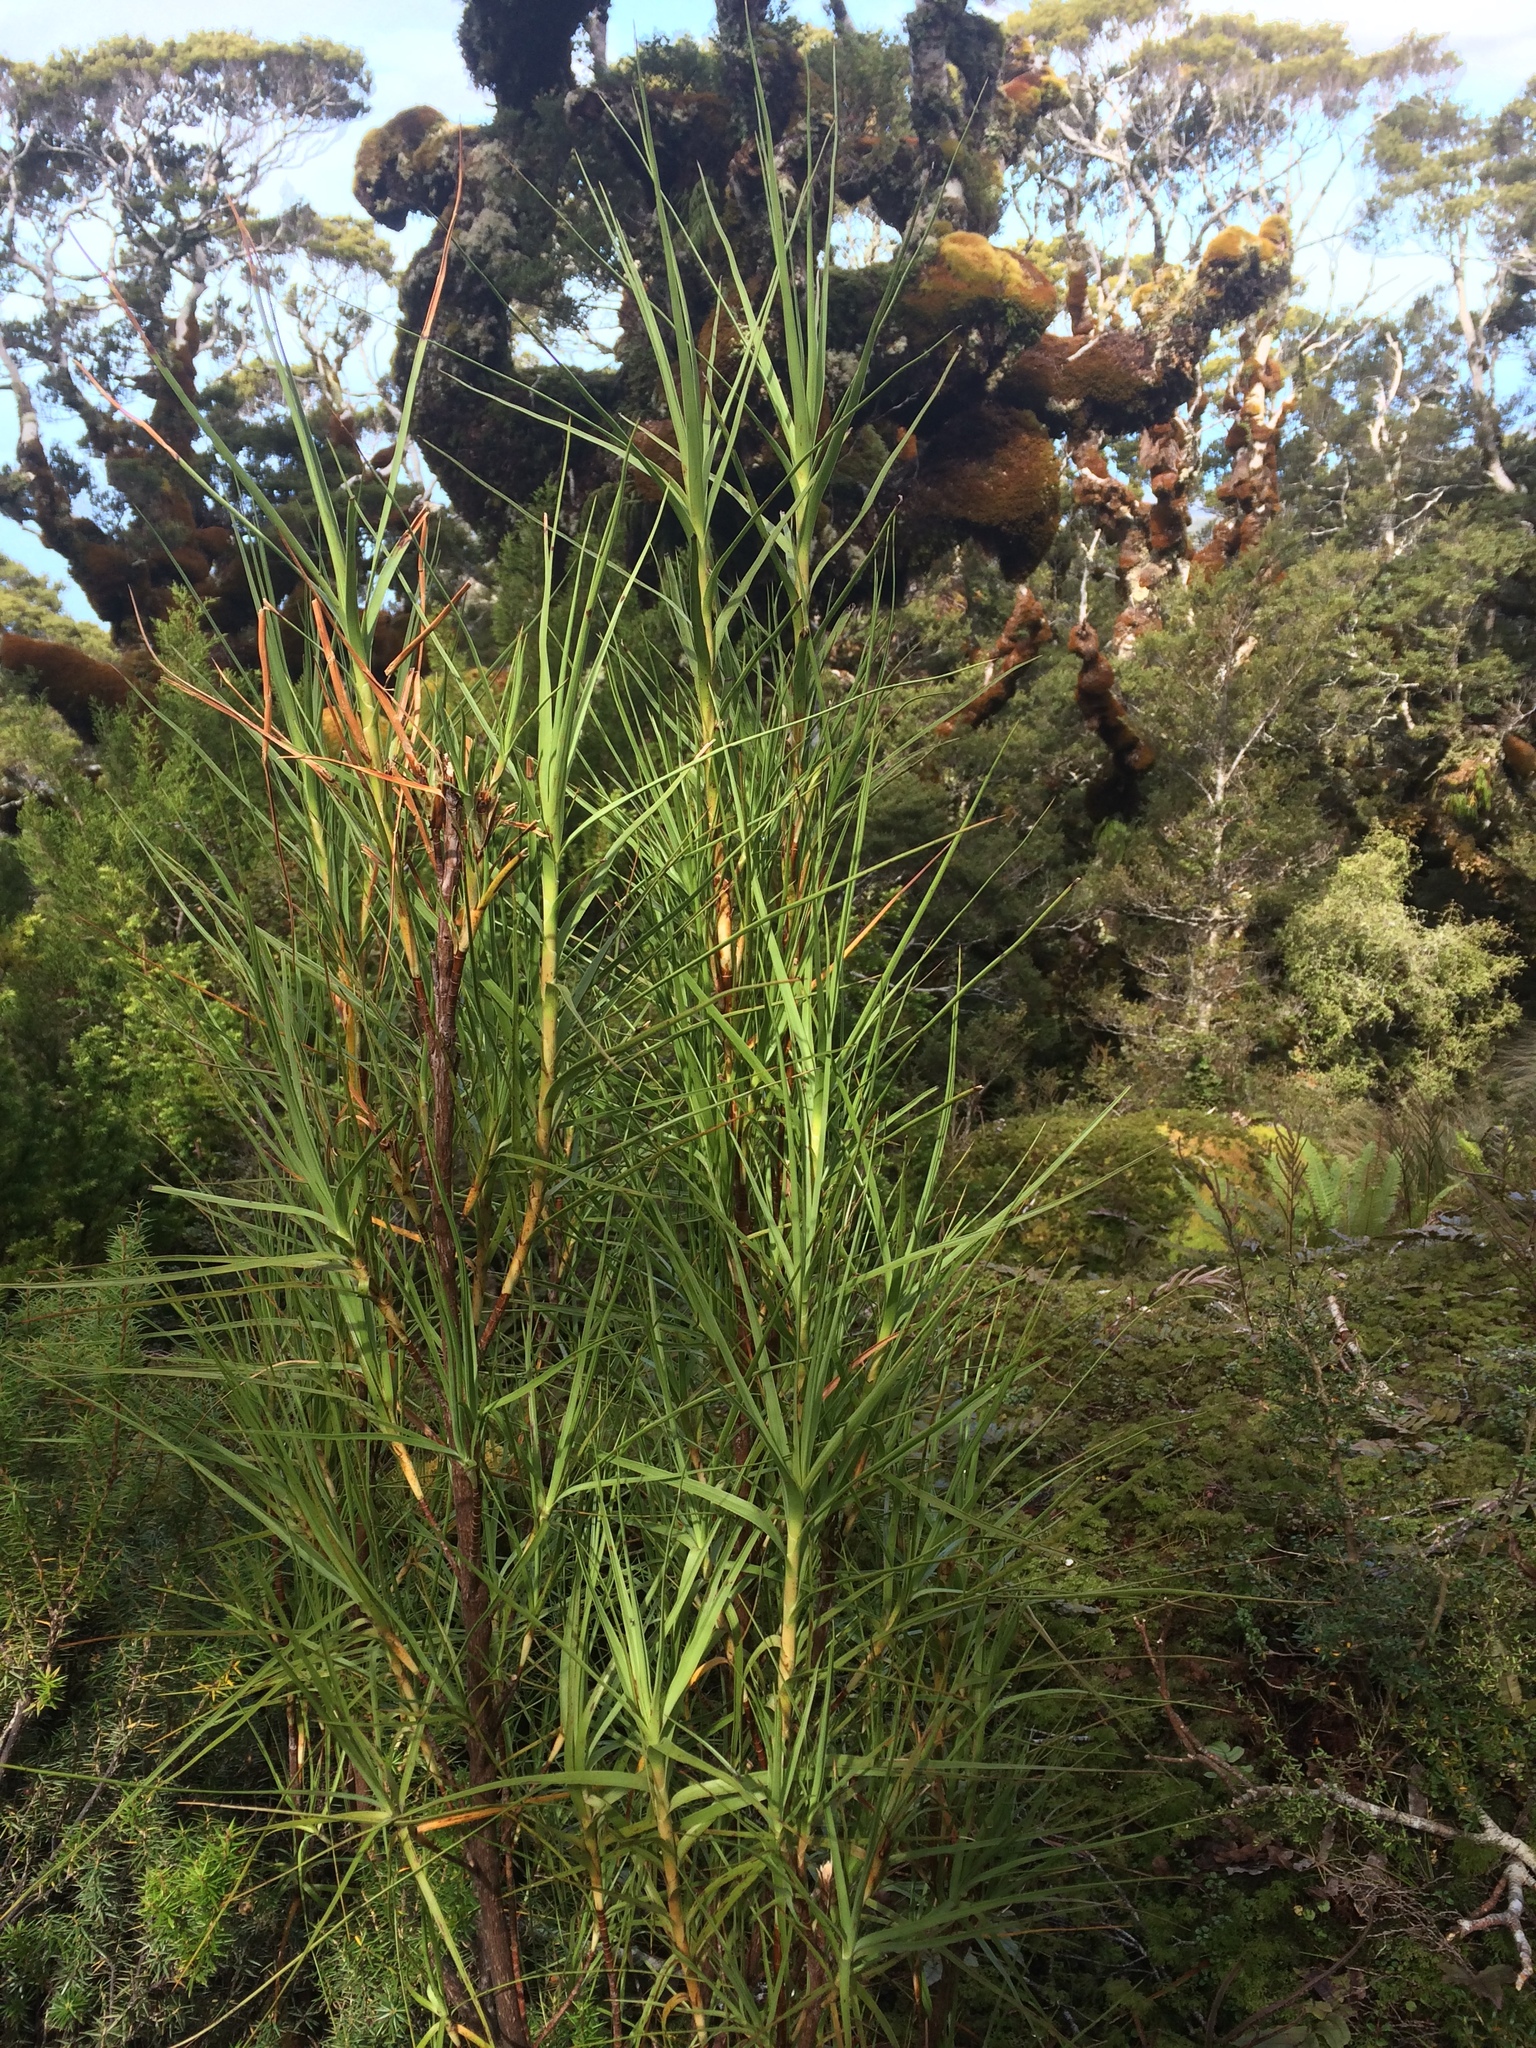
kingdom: Plantae
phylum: Tracheophyta
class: Magnoliopsida
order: Ericales
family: Ericaceae
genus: Dracophyllum
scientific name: Dracophyllum longifolium
